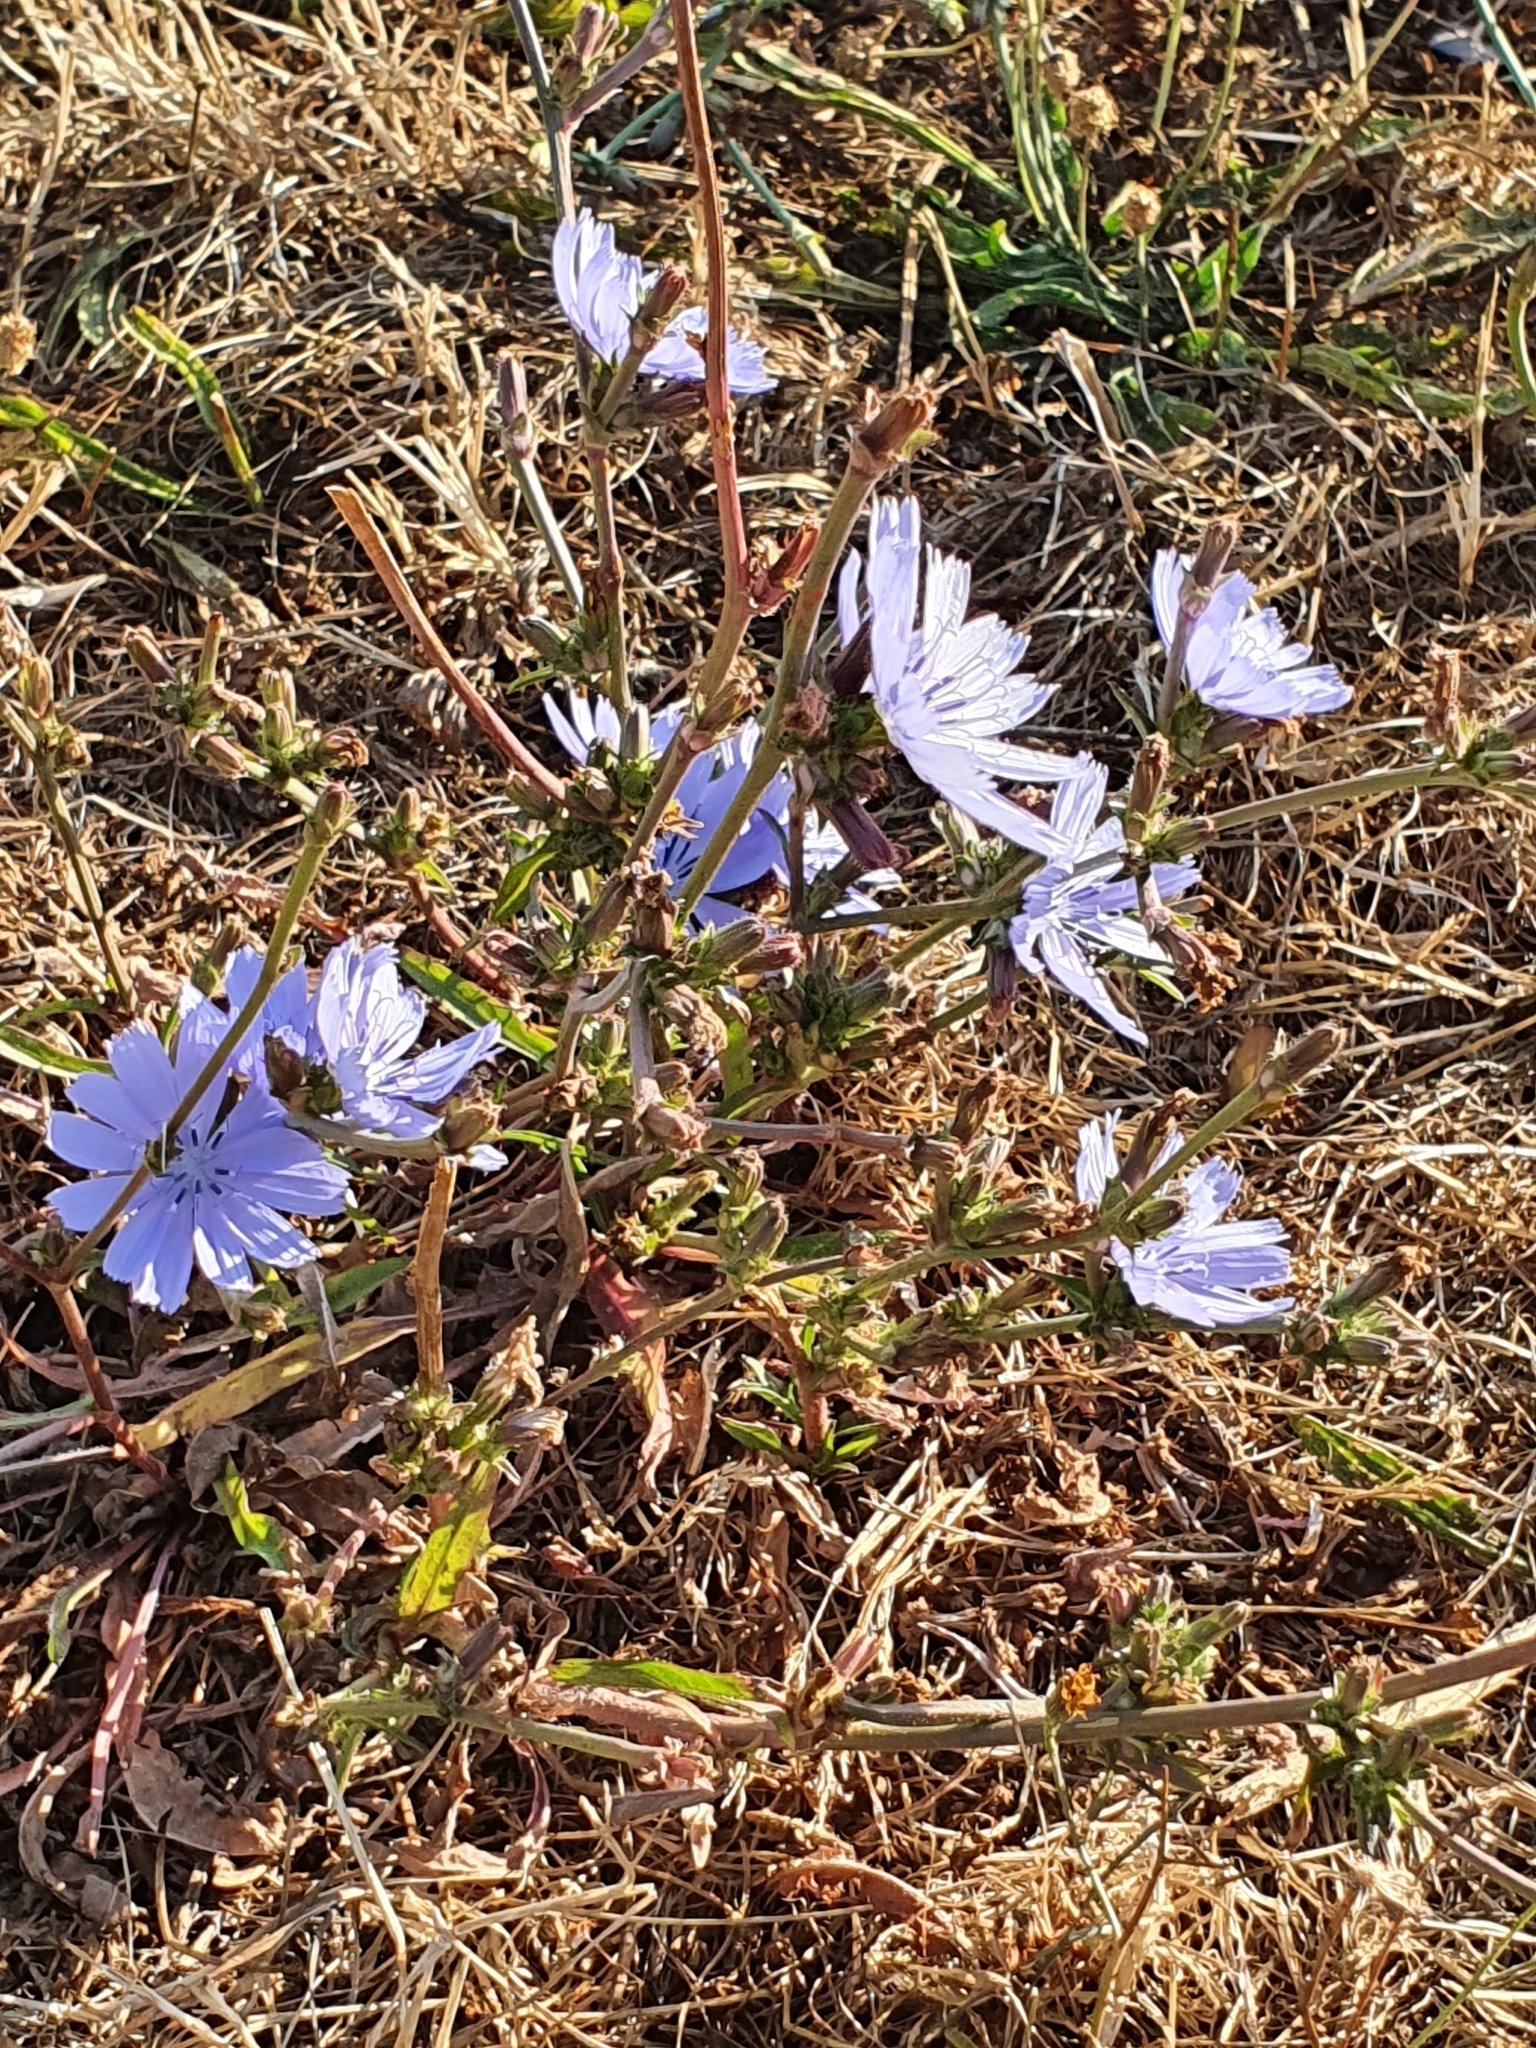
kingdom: Plantae
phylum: Tracheophyta
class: Magnoliopsida
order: Asterales
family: Asteraceae
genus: Cichorium
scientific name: Cichorium intybus
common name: Chicory
